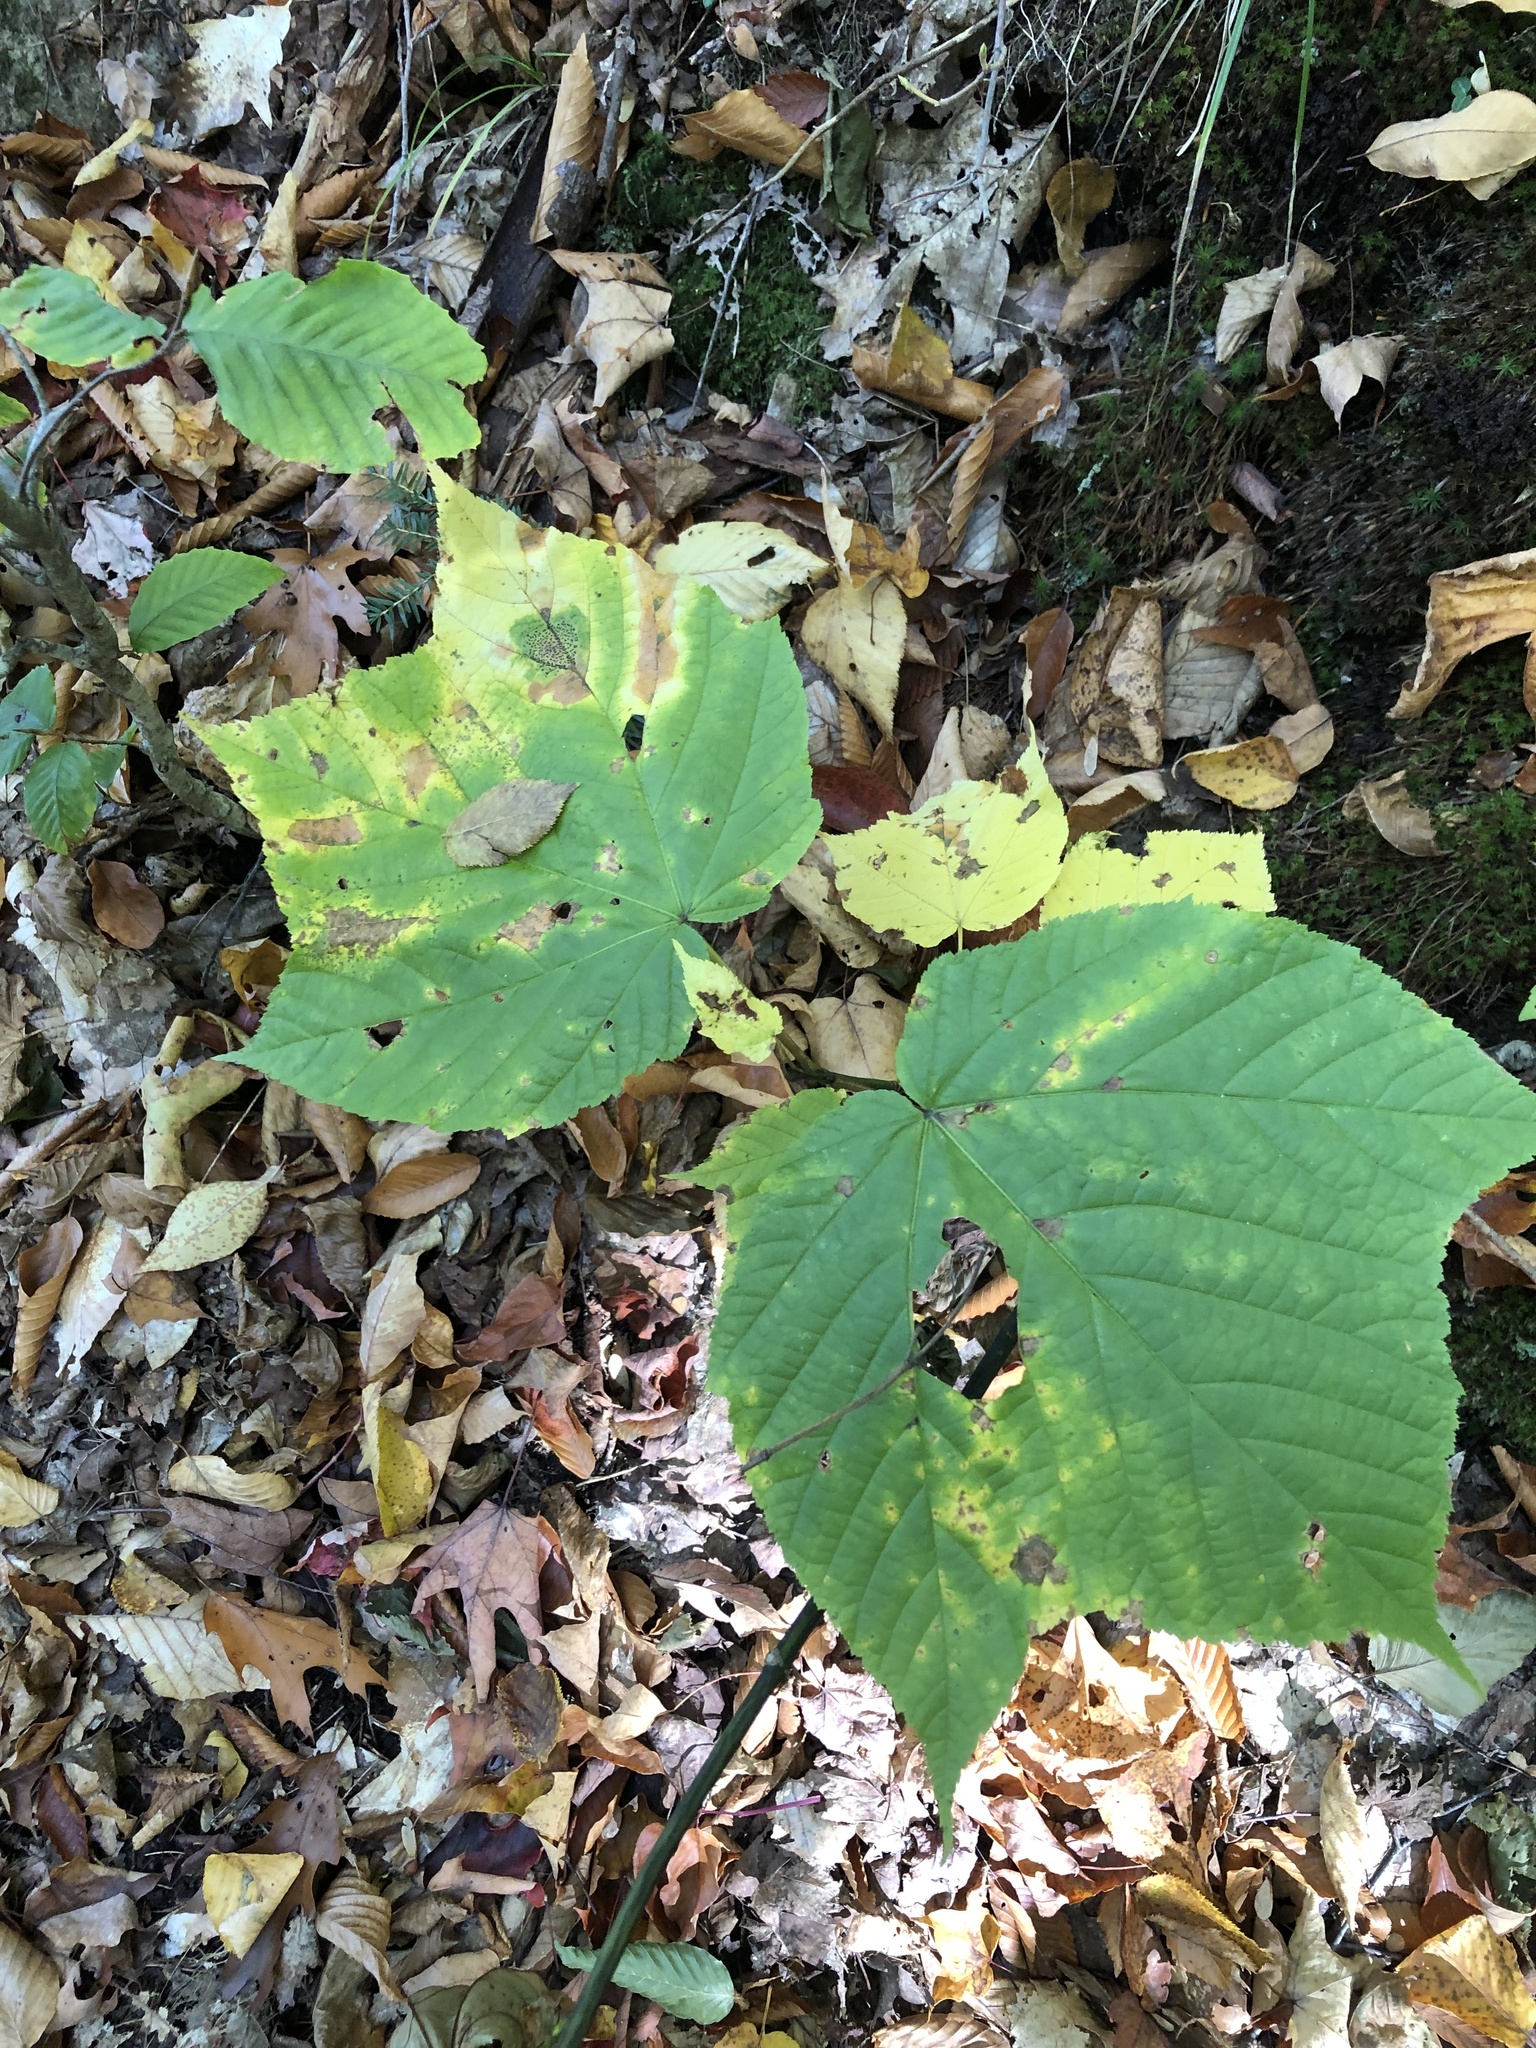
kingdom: Plantae
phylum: Tracheophyta
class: Magnoliopsida
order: Sapindales
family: Sapindaceae
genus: Acer
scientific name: Acer pensylvanicum
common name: Moosewood
